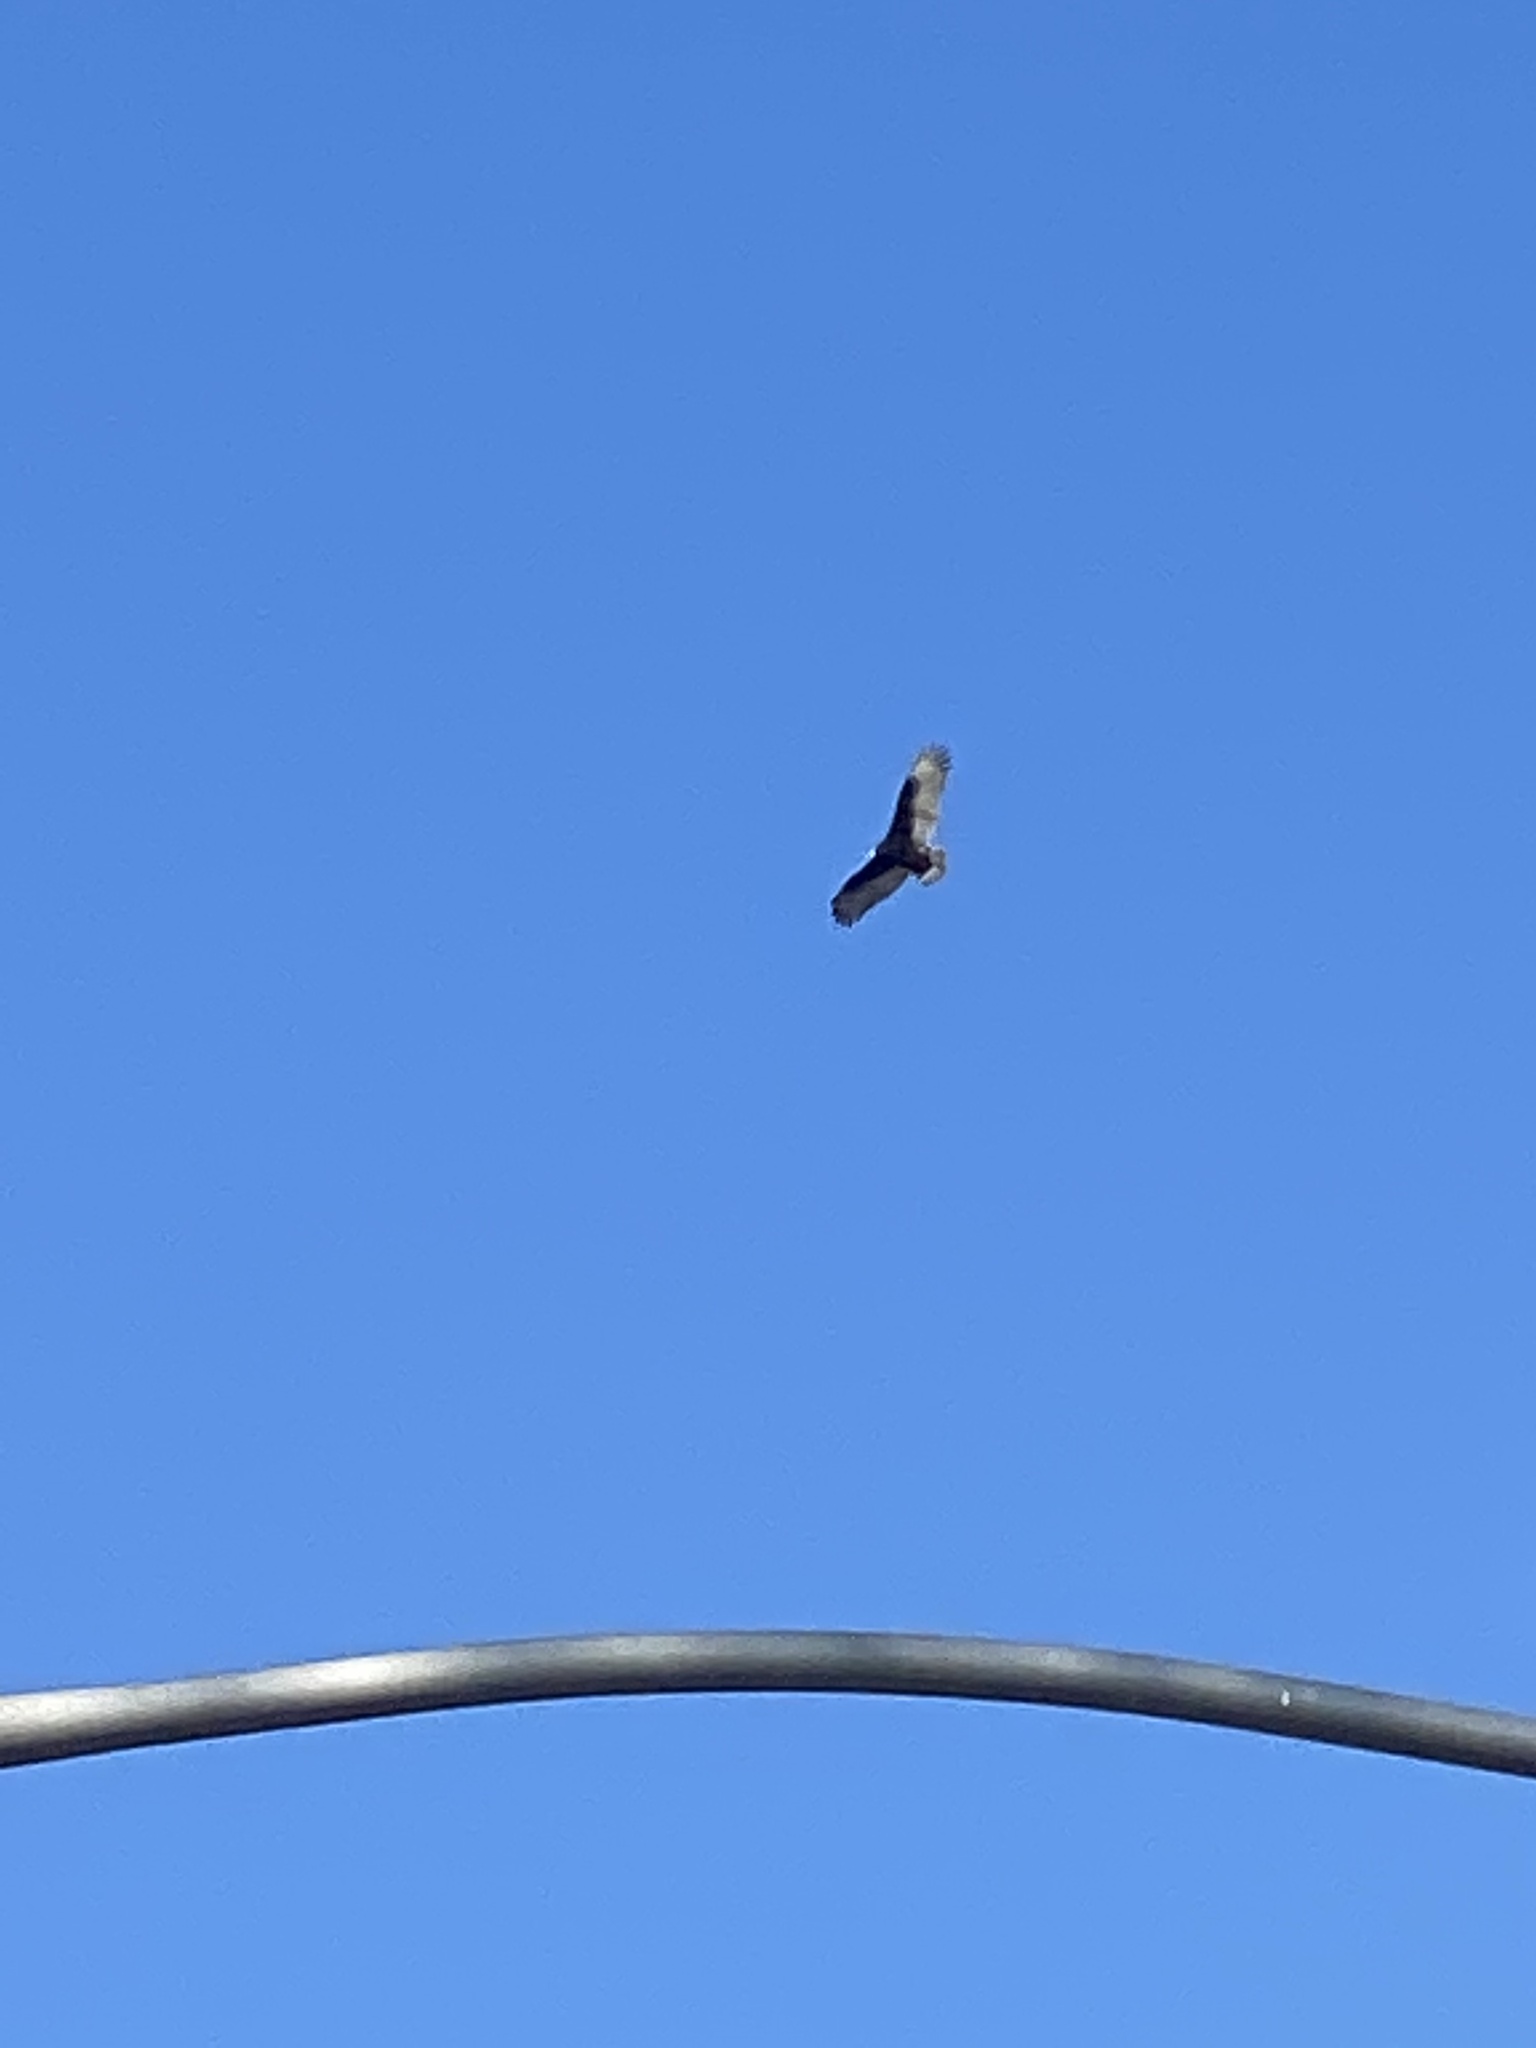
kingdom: Animalia
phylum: Chordata
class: Aves
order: Accipitriformes
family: Cathartidae
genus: Cathartes
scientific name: Cathartes aura
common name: Turkey vulture
